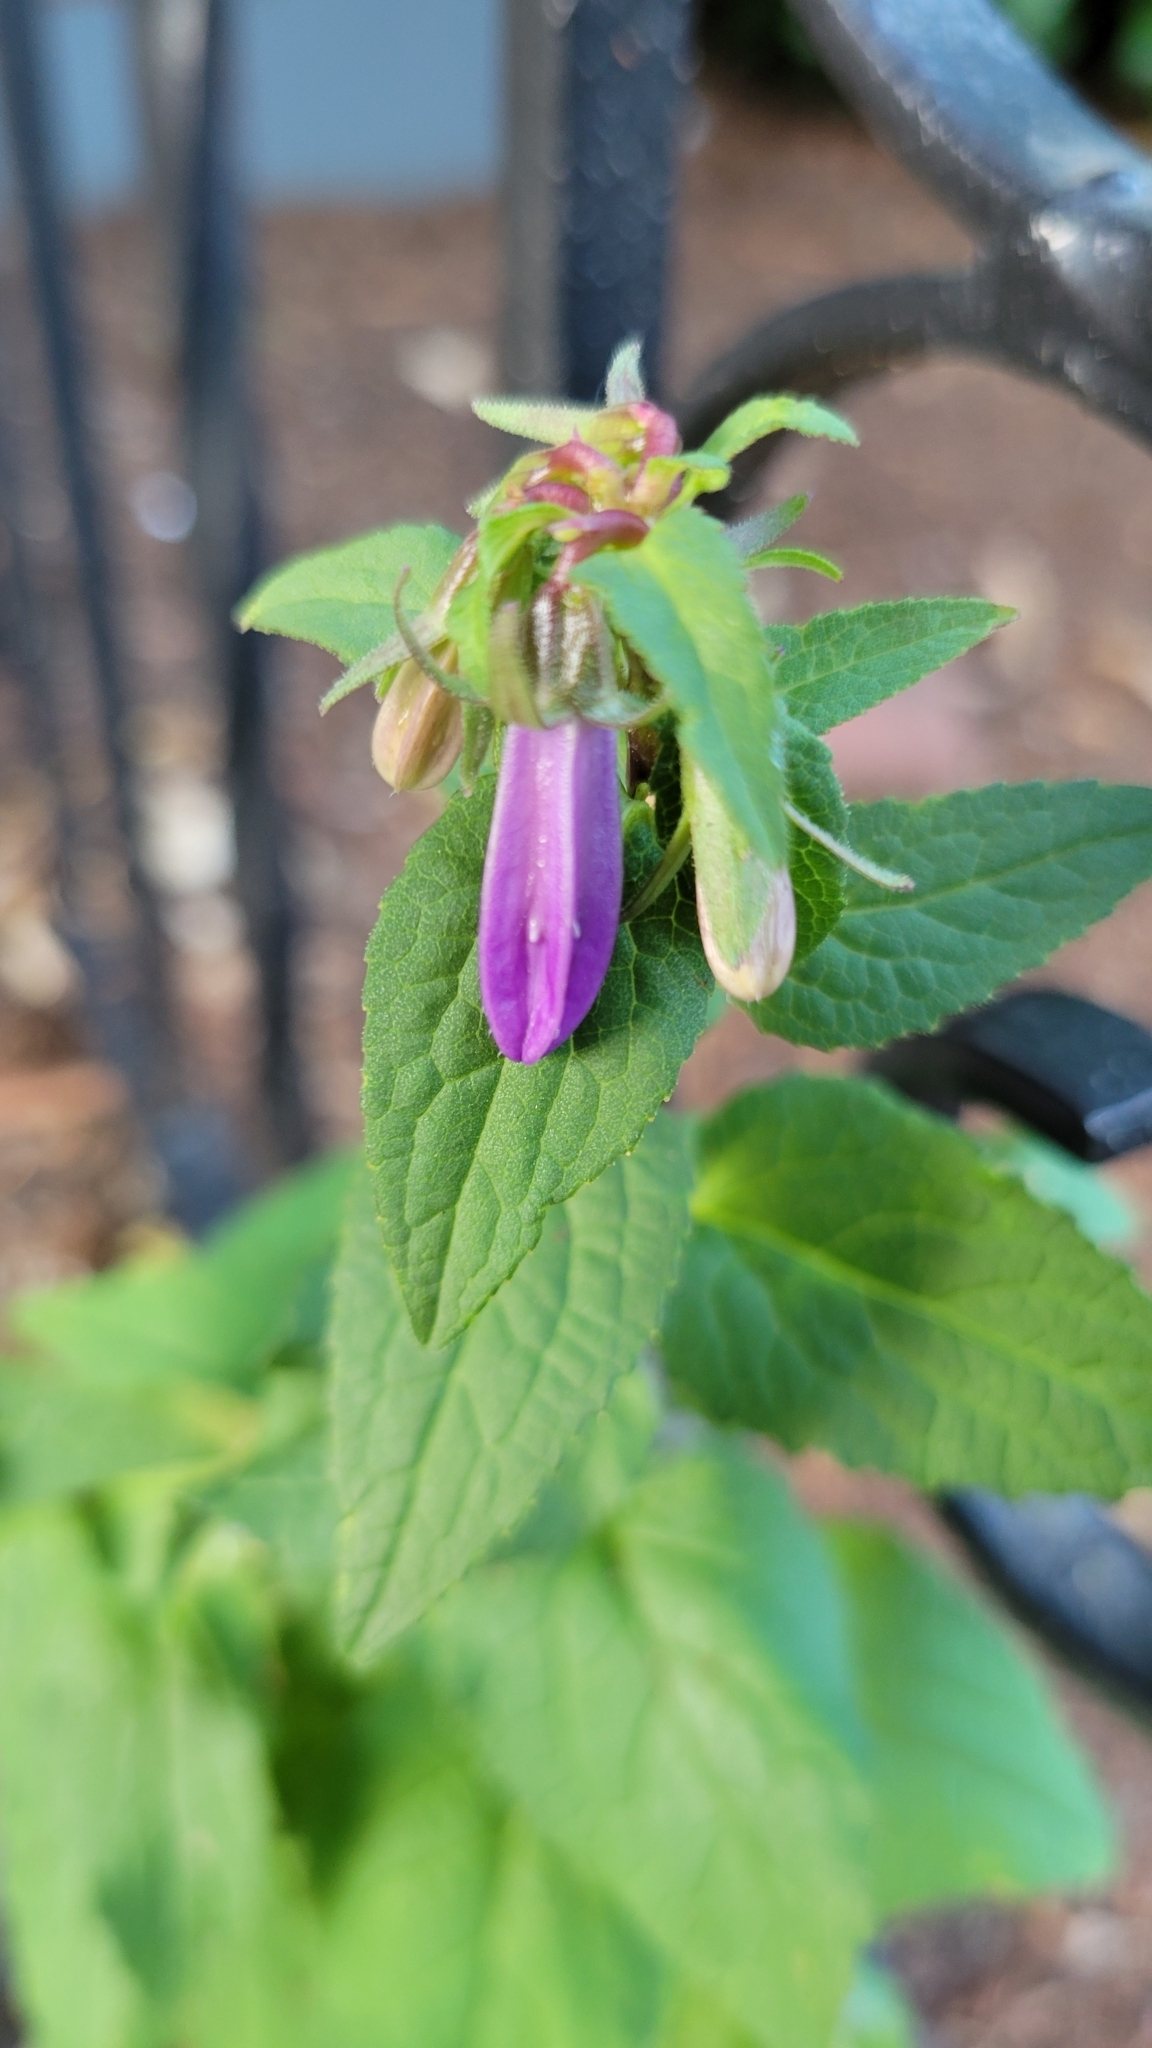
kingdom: Plantae
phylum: Tracheophyta
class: Magnoliopsida
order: Asterales
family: Campanulaceae
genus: Campanula
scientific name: Campanula rapunculoides
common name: Creeping bellflower
